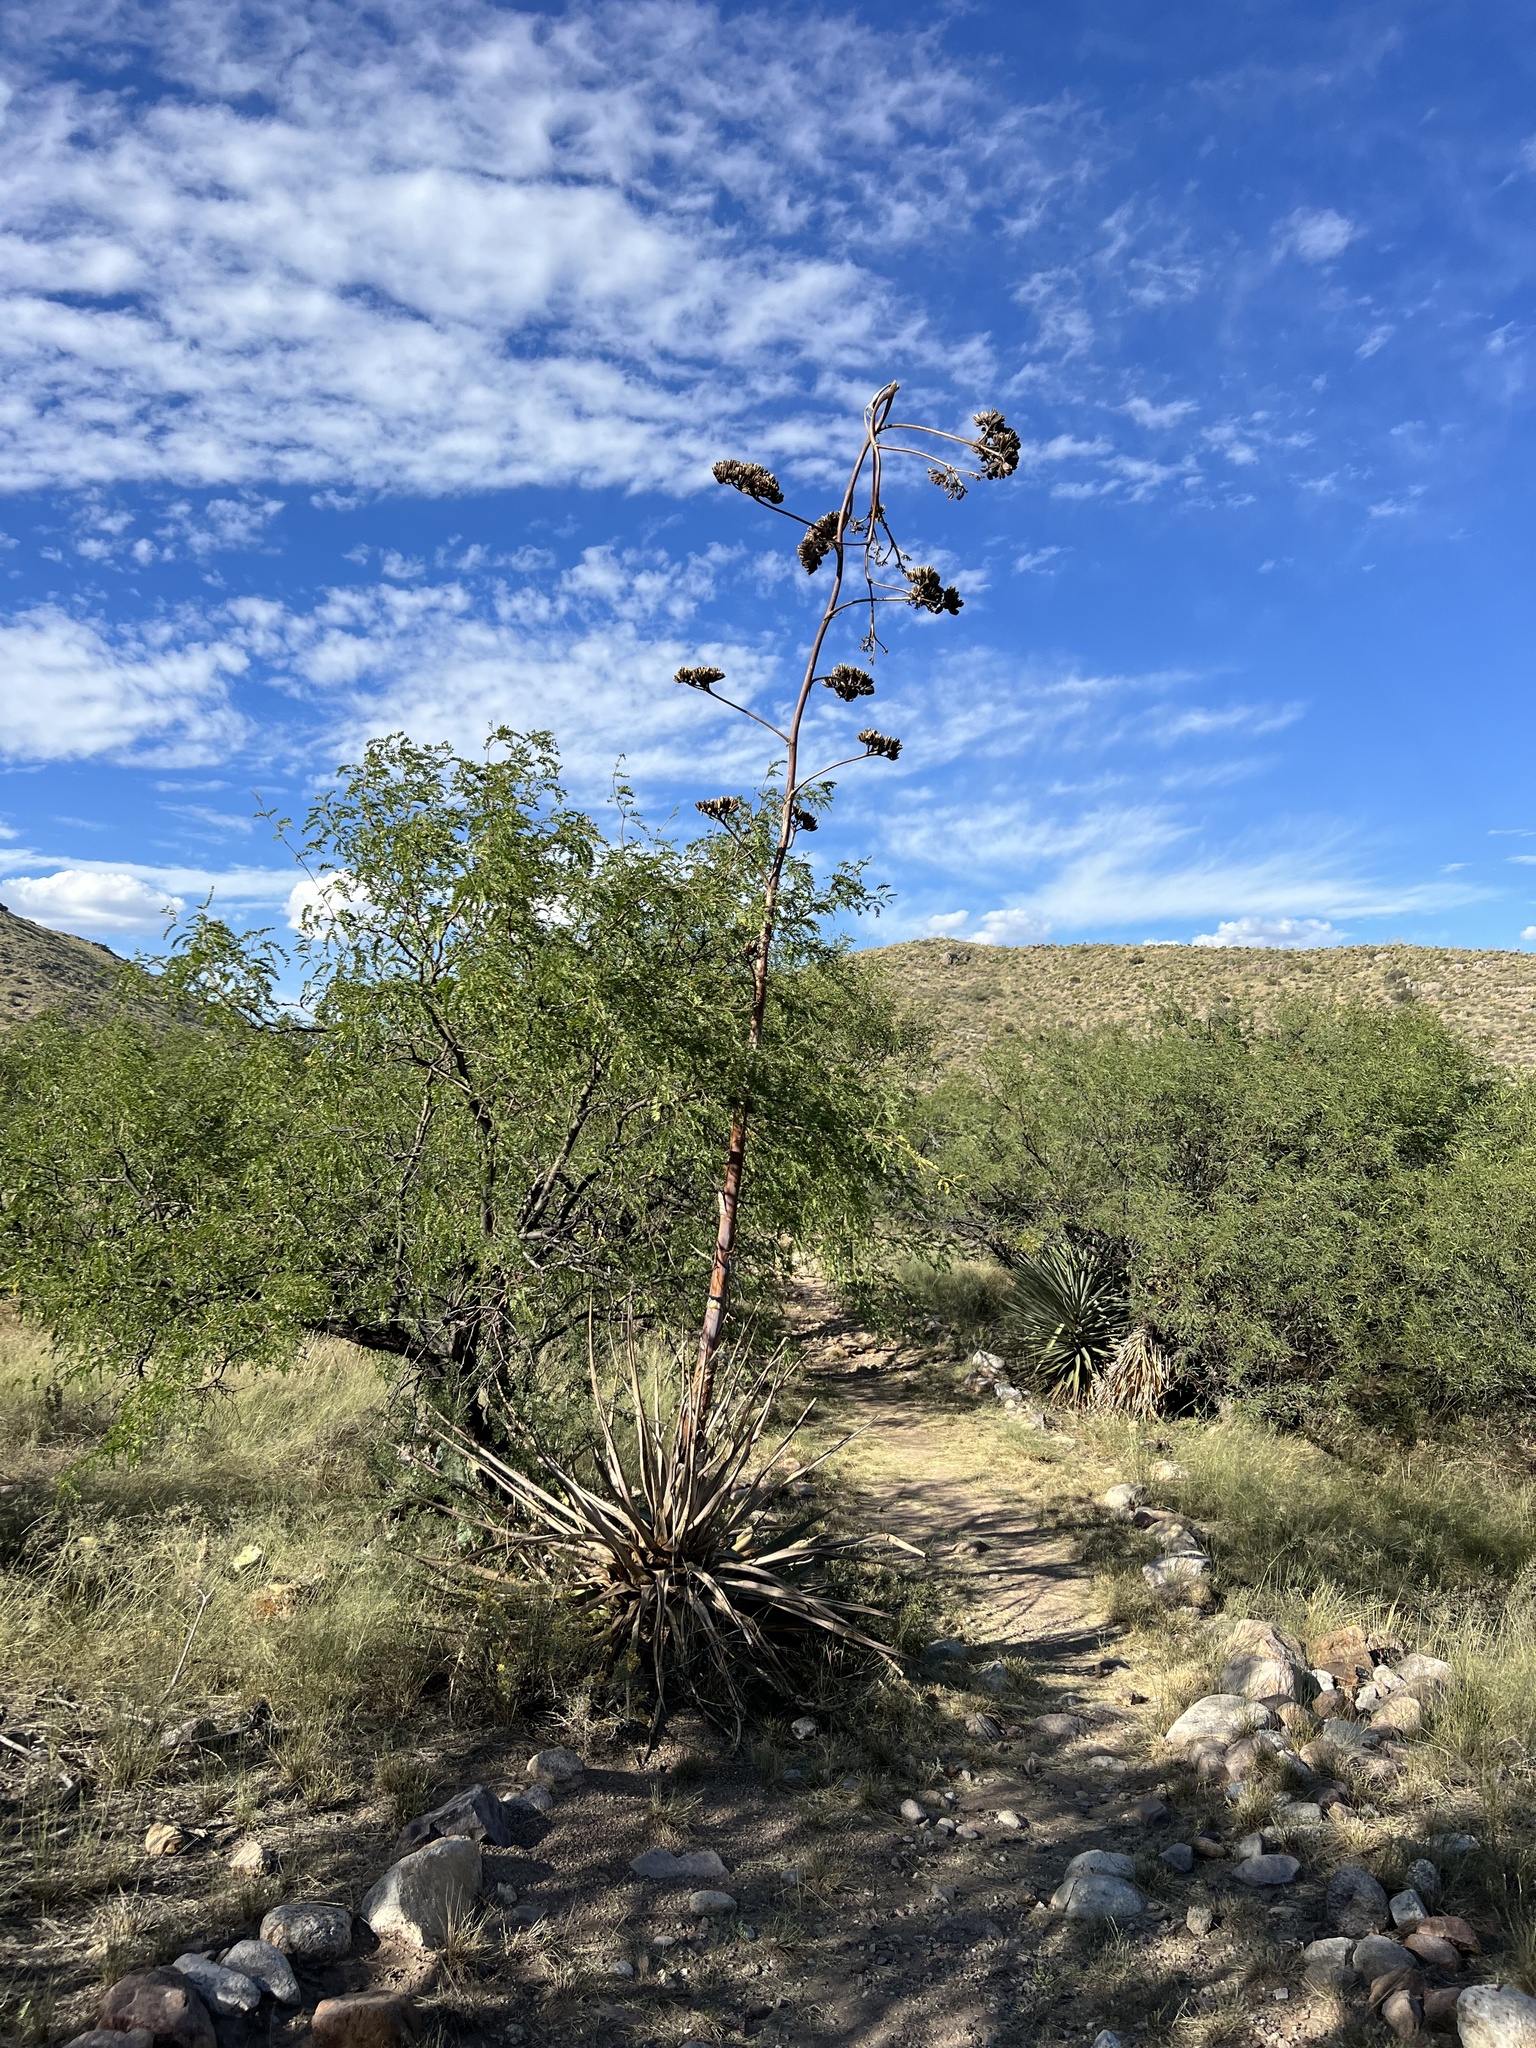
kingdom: Plantae
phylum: Tracheophyta
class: Liliopsida
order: Asparagales
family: Asparagaceae
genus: Agave
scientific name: Agave palmeri
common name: Palmer agave
